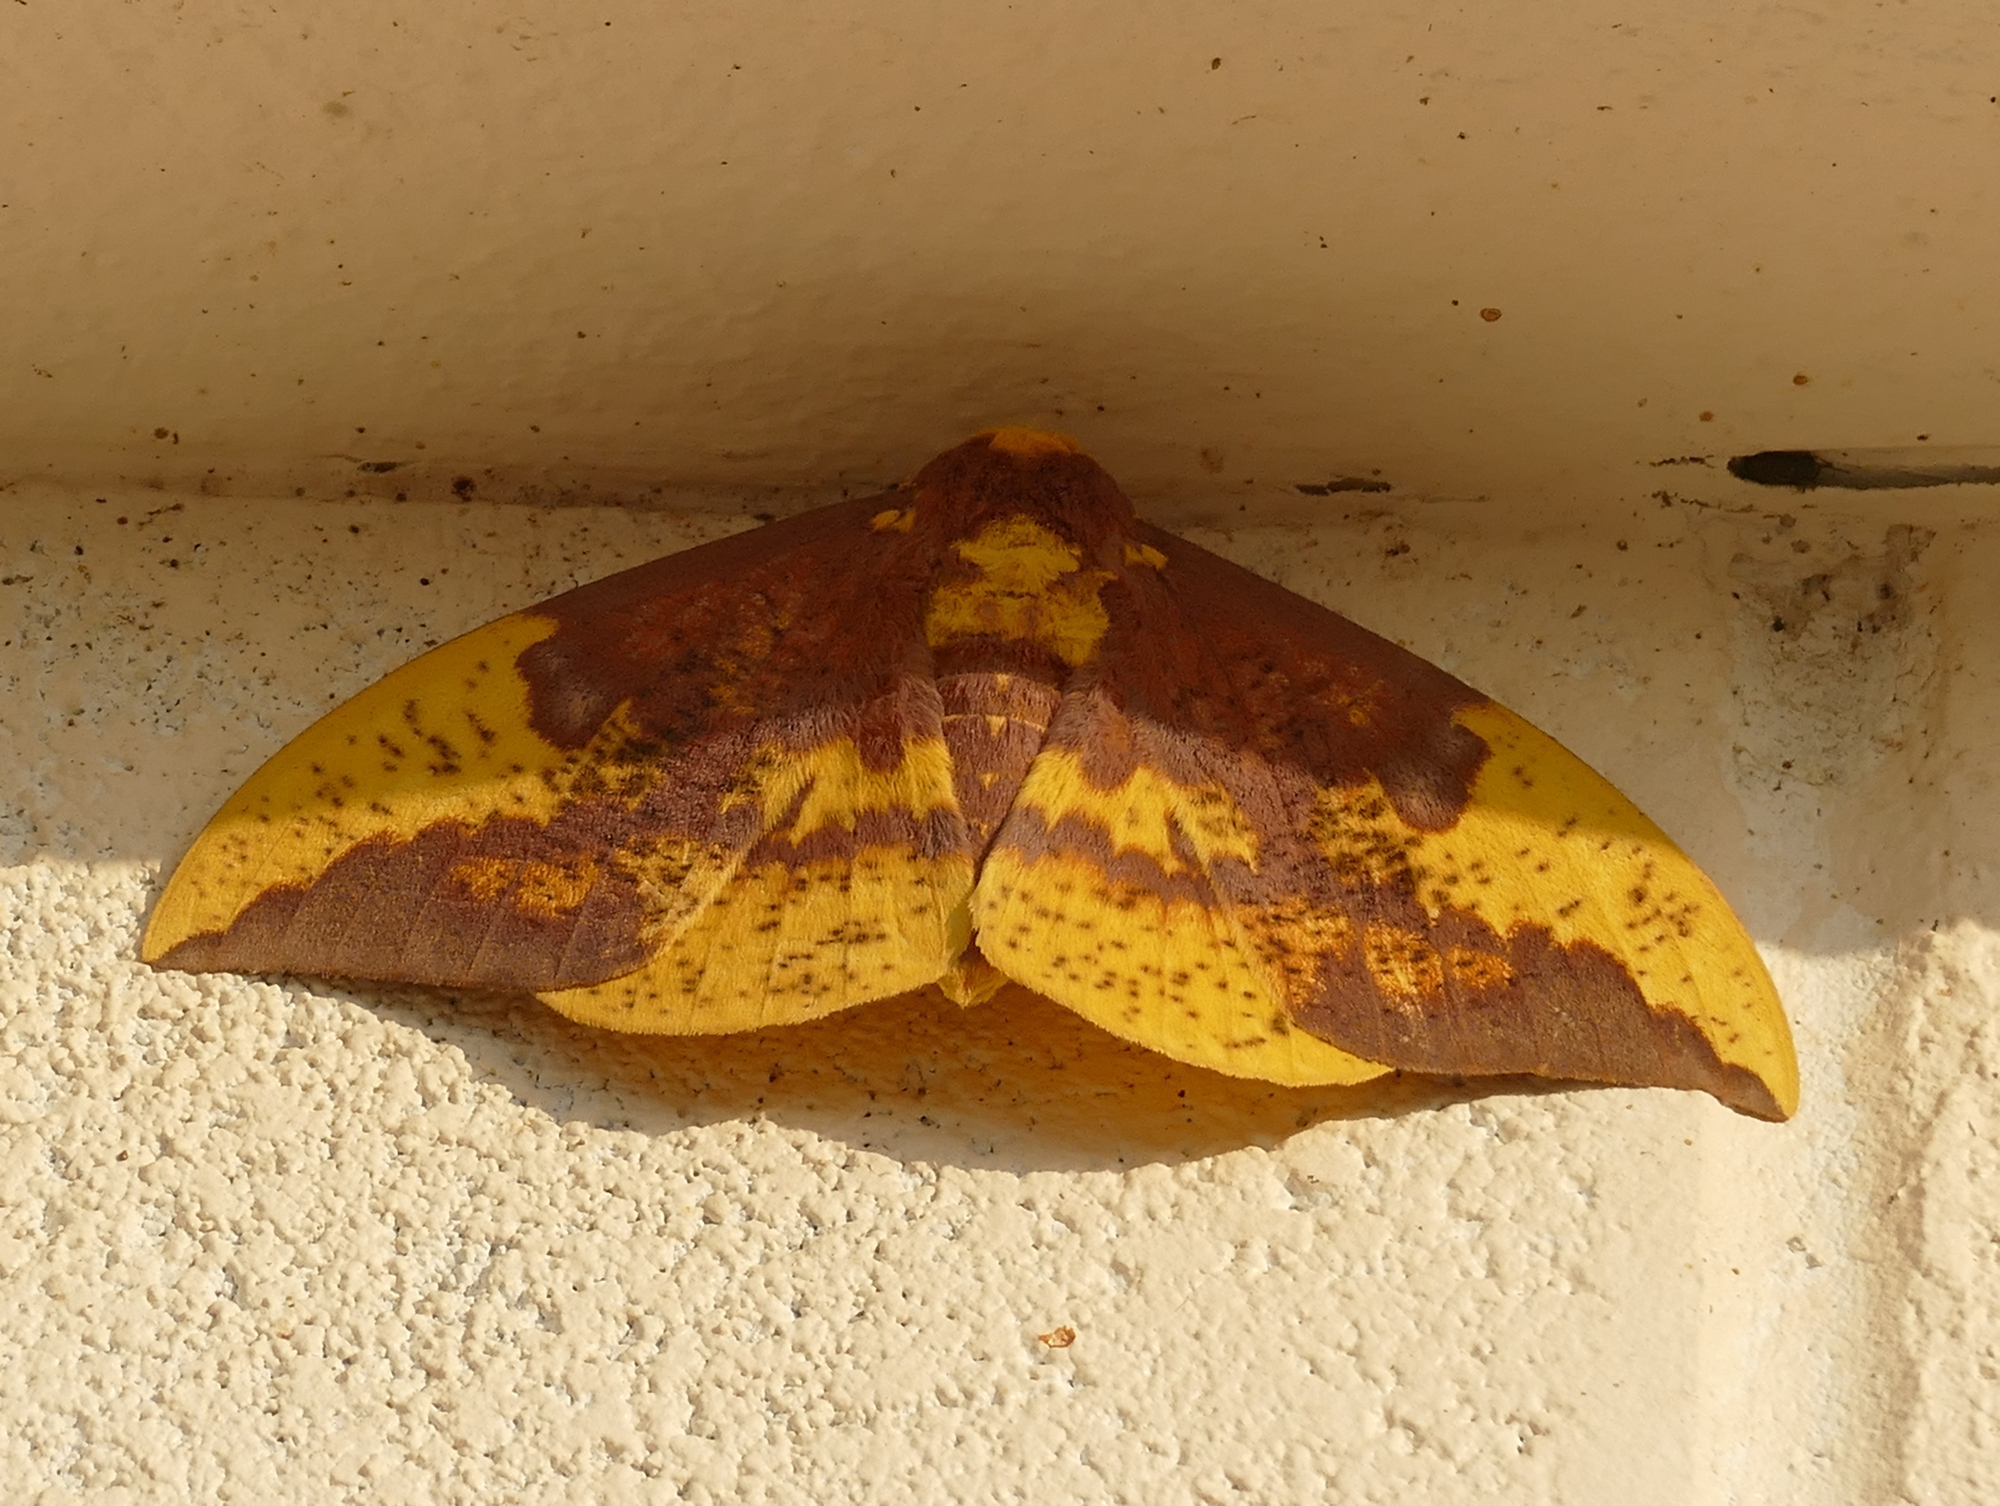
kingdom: Animalia
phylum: Arthropoda
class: Insecta
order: Lepidoptera
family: Saturniidae
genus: Eacles
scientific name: Eacles imperialis
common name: Imperial moth
